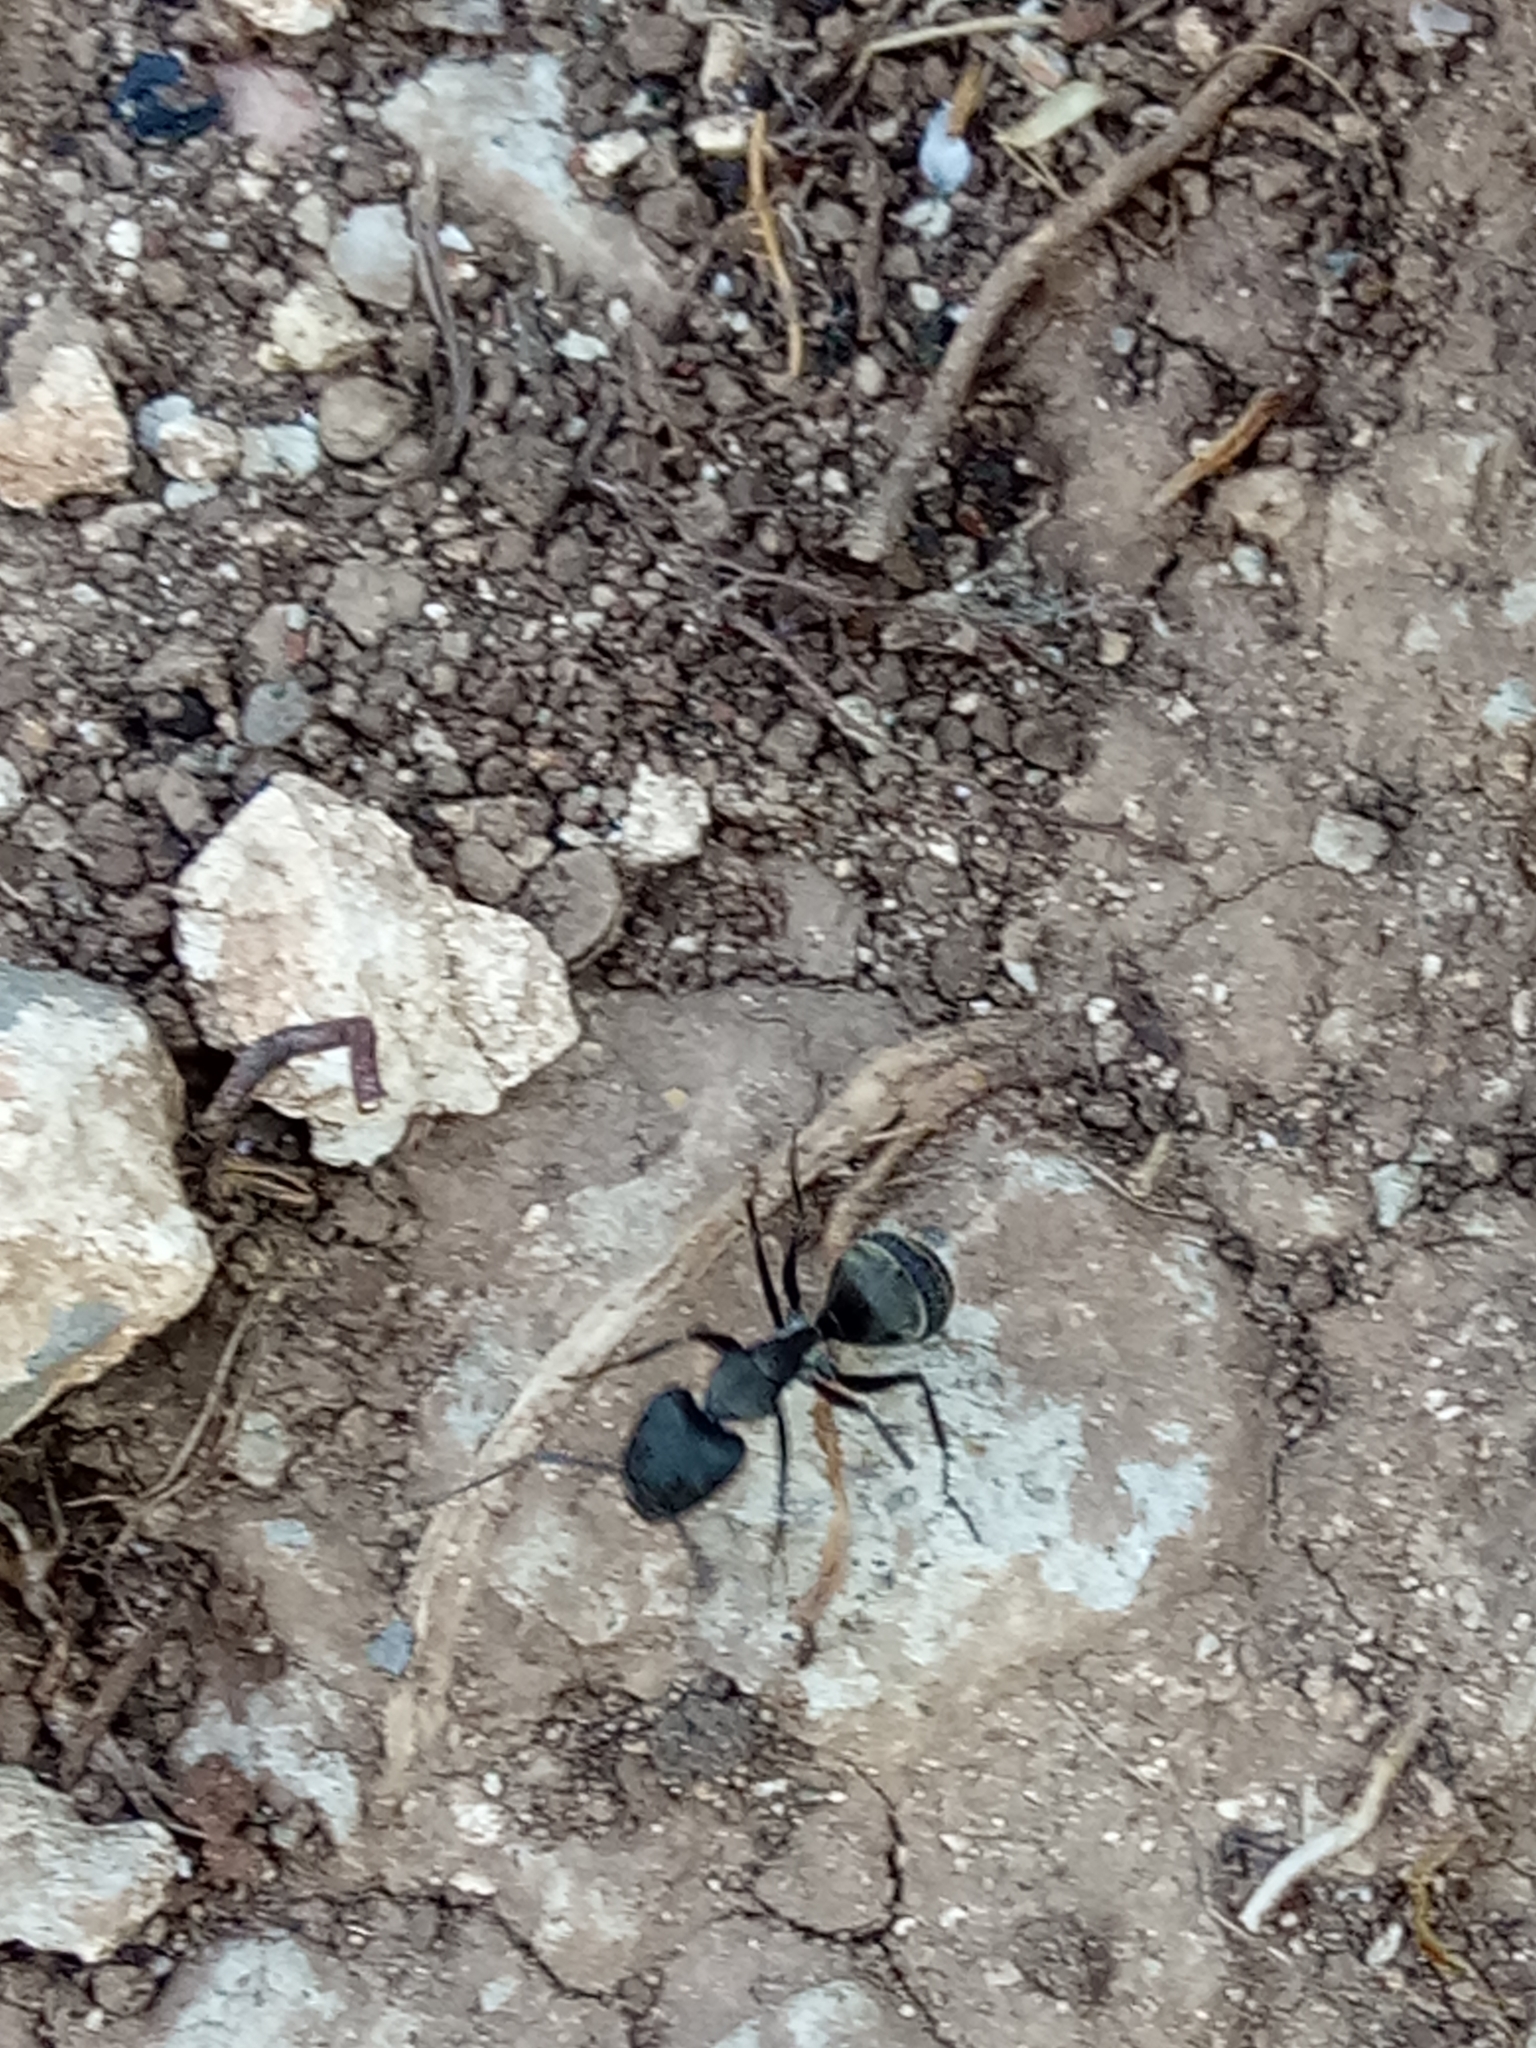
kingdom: Animalia
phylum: Arthropoda
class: Insecta
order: Hymenoptera
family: Formicidae
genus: Camponotus
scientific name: Camponotus micans
